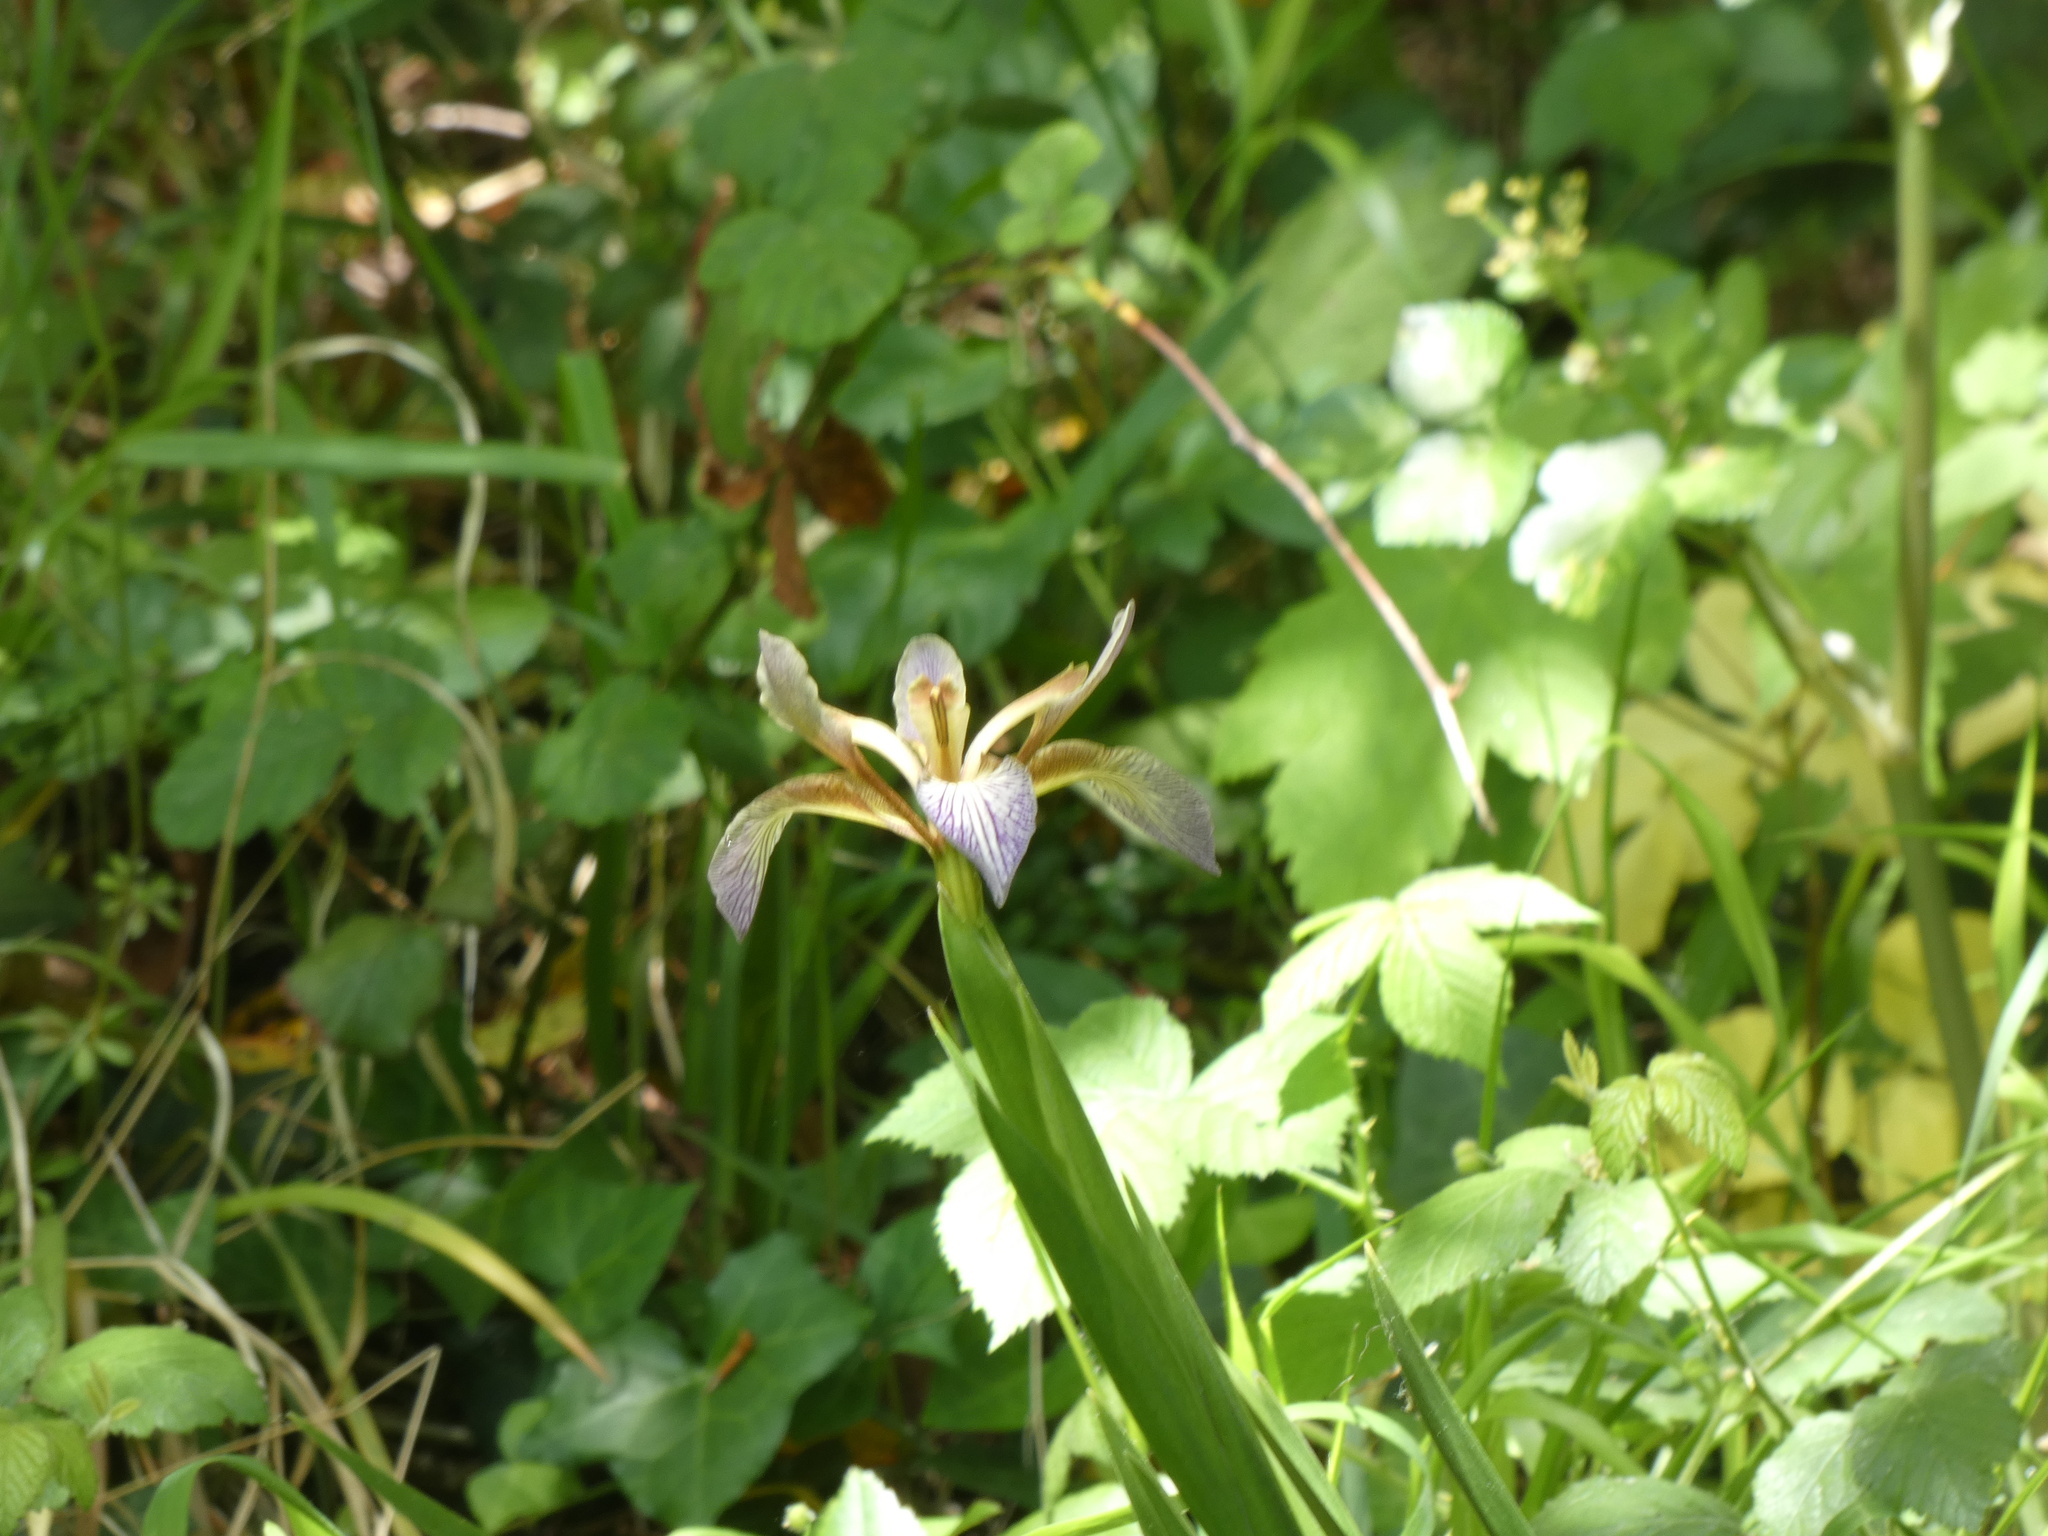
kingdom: Plantae
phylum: Tracheophyta
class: Liliopsida
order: Asparagales
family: Iridaceae
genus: Iris
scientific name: Iris foetidissima
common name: Stinking iris
